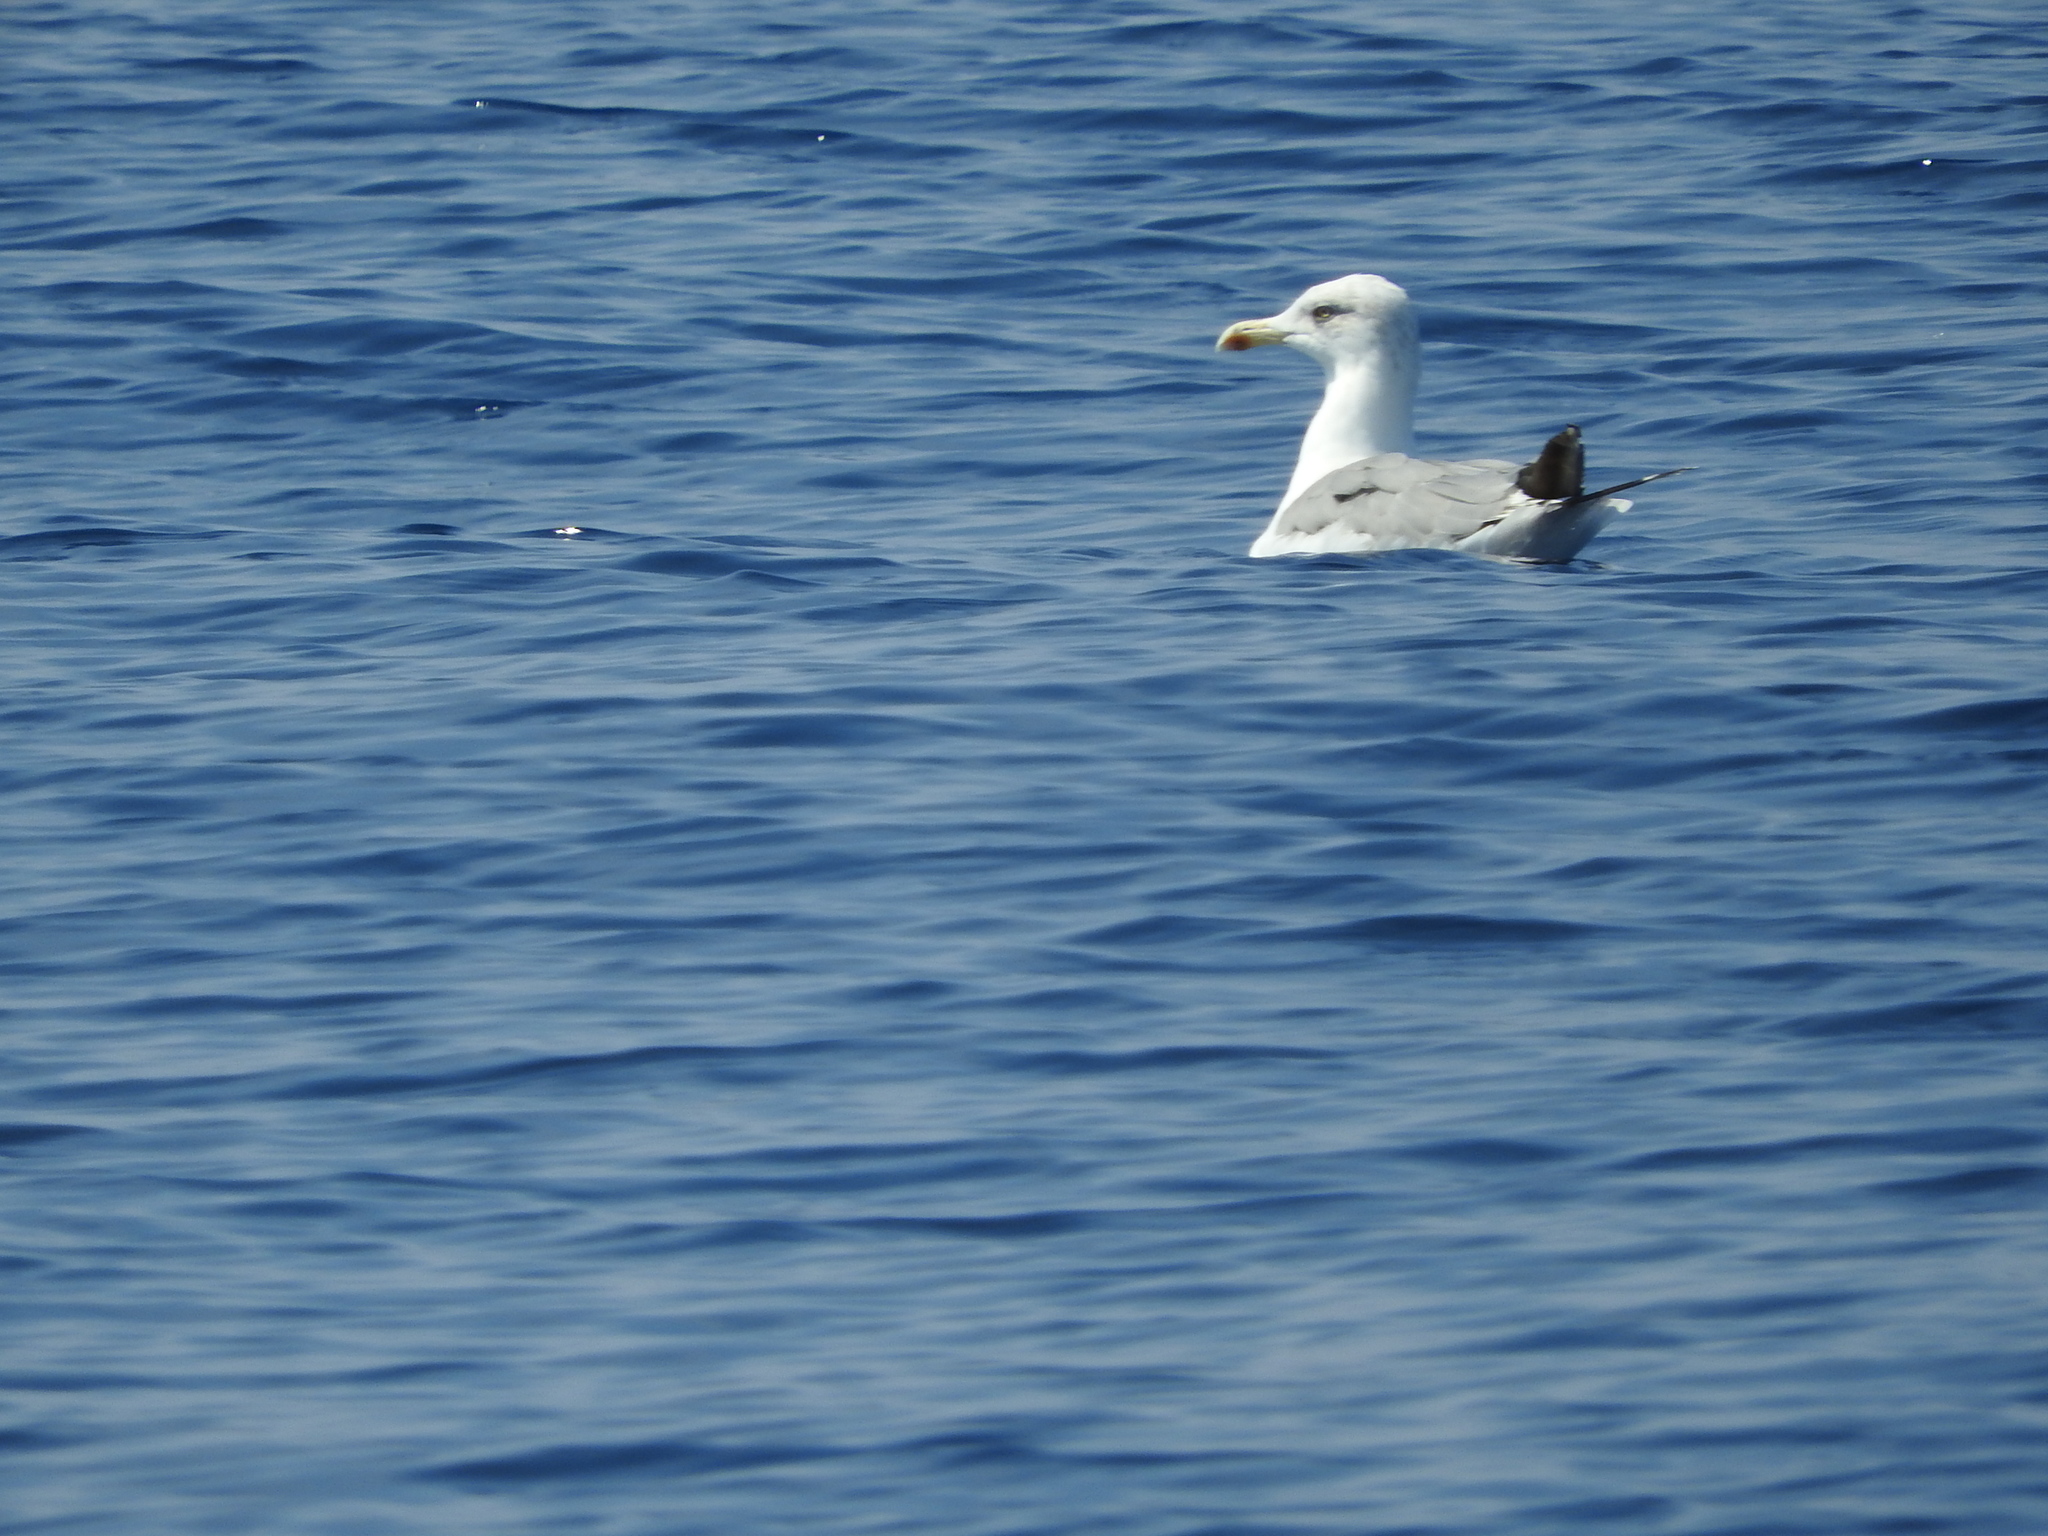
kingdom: Animalia
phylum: Chordata
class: Aves
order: Charadriiformes
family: Laridae
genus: Larus
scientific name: Larus michahellis
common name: Yellow-legged gull
